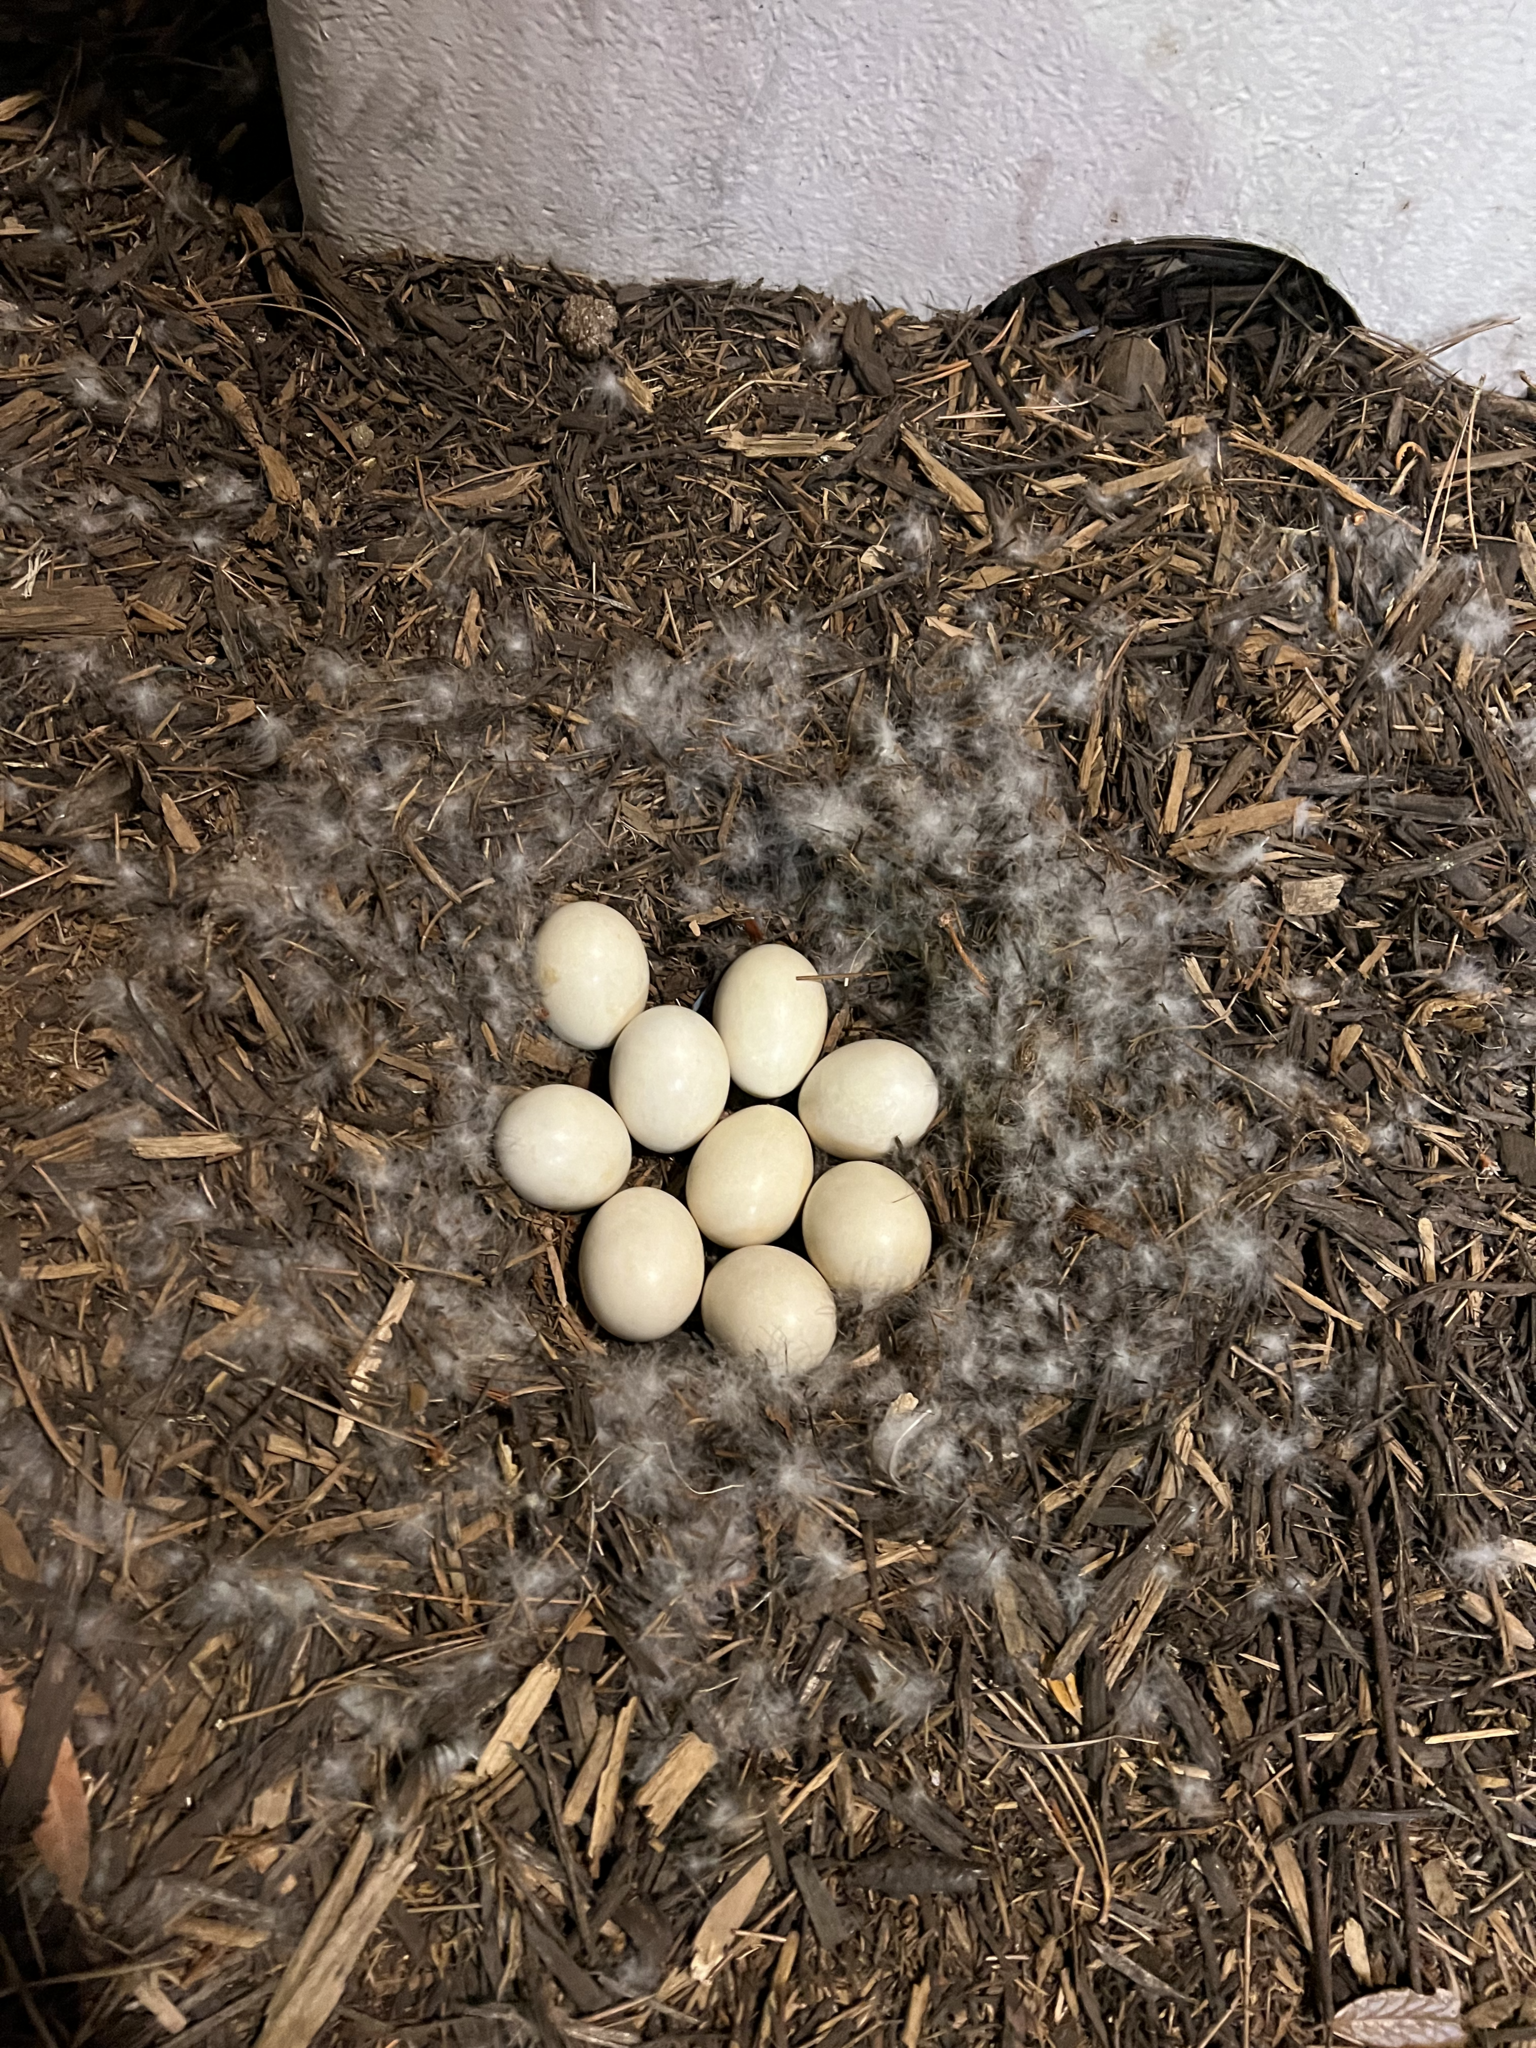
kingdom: Animalia
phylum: Chordata
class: Aves
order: Anseriformes
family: Anatidae
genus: Cairina
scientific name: Cairina moschata
